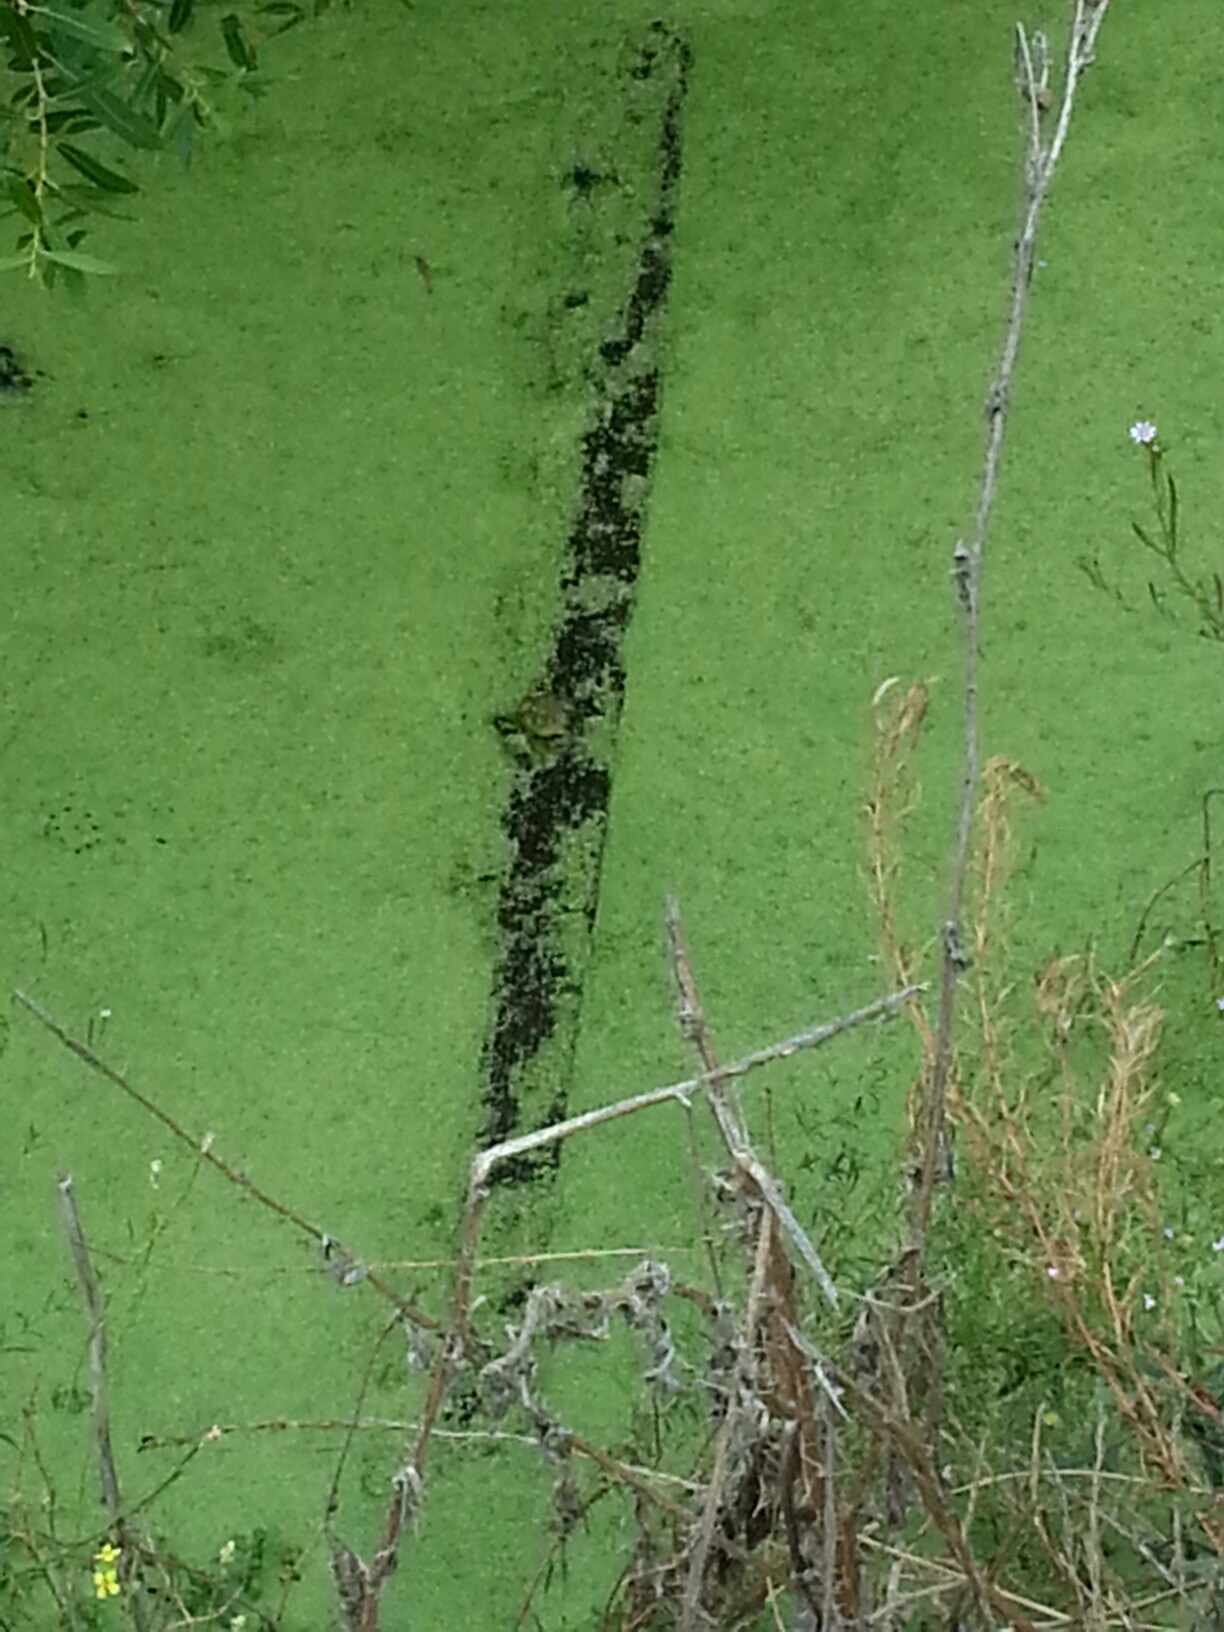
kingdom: Animalia
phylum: Chordata
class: Amphibia
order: Anura
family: Ranidae
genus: Lithobates
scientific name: Lithobates catesbeianus
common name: American bullfrog
